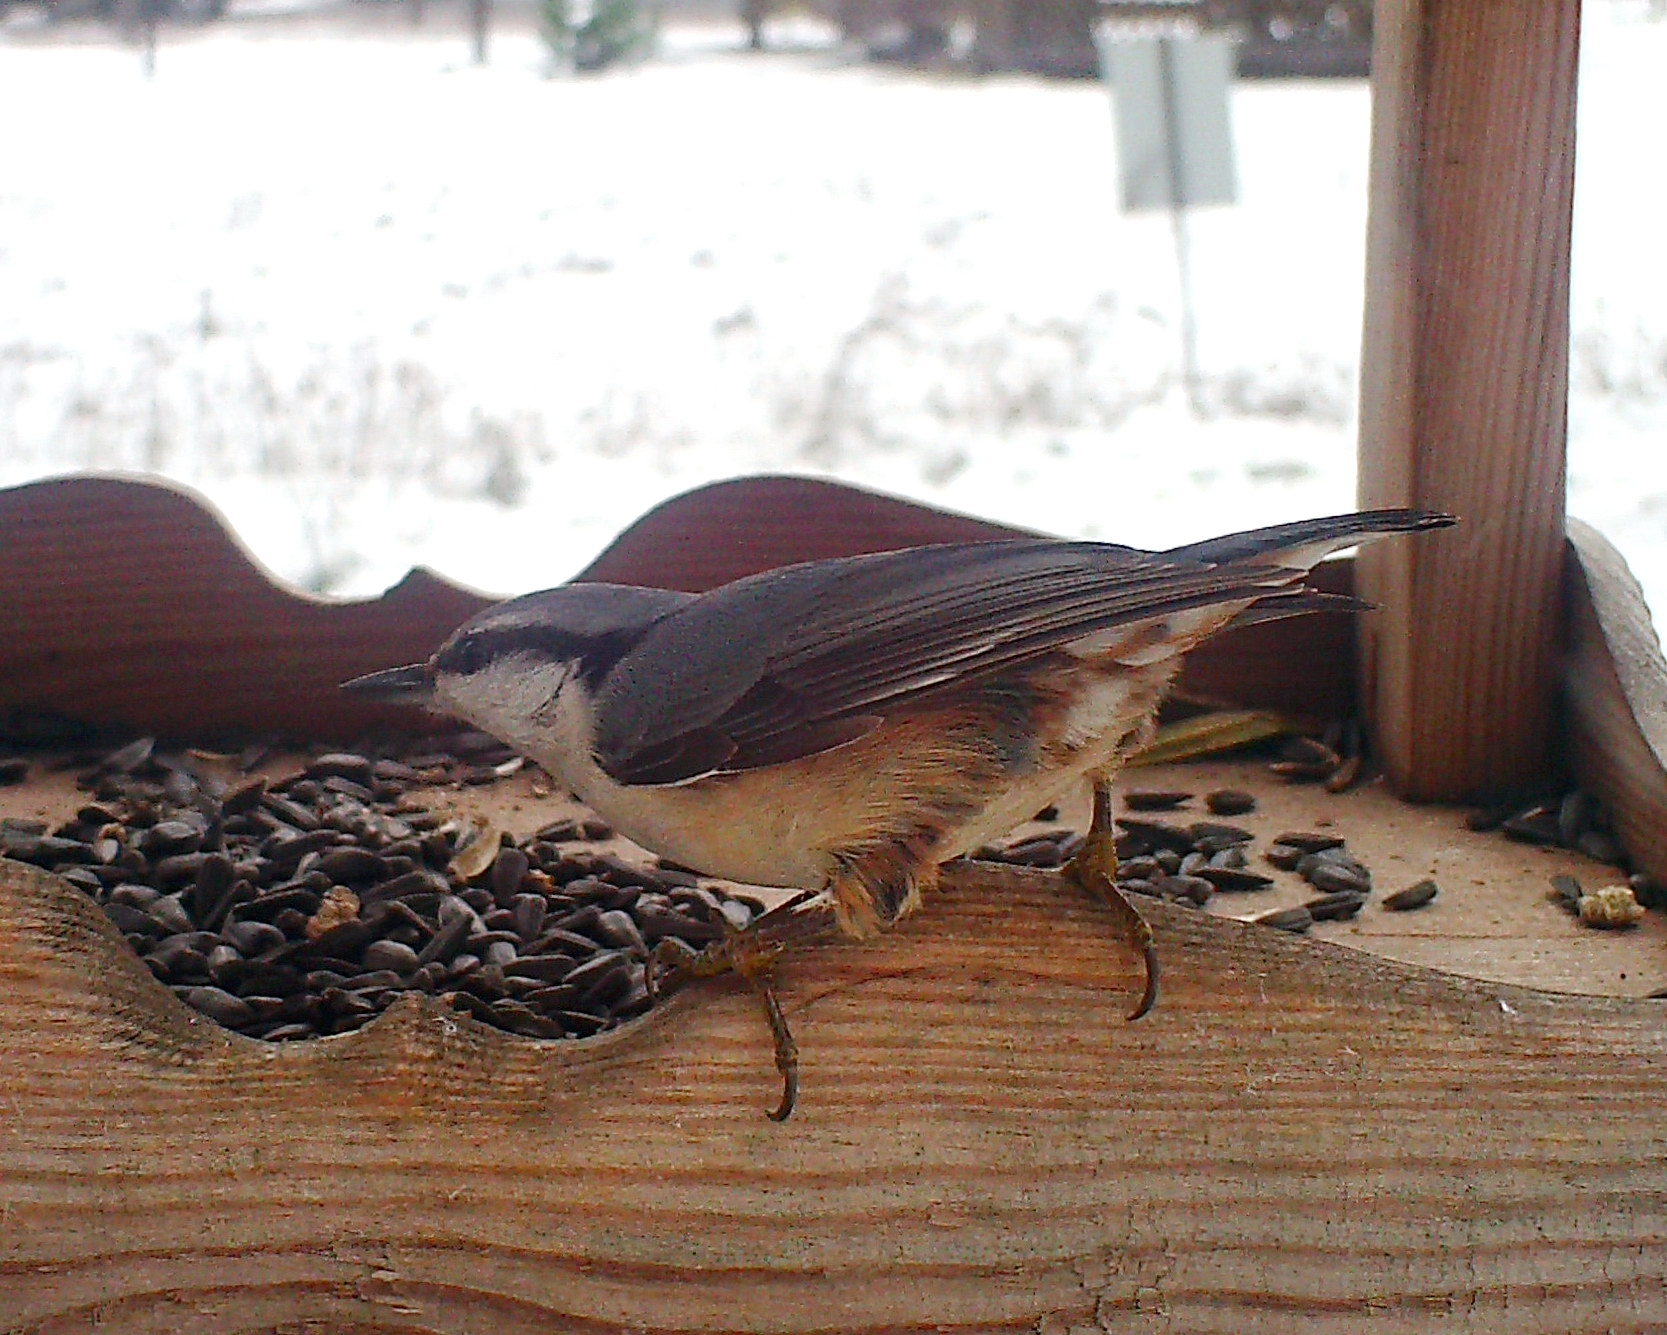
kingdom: Animalia
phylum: Chordata
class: Aves
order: Passeriformes
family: Sittidae
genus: Sitta
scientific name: Sitta europaea
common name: Eurasian nuthatch
